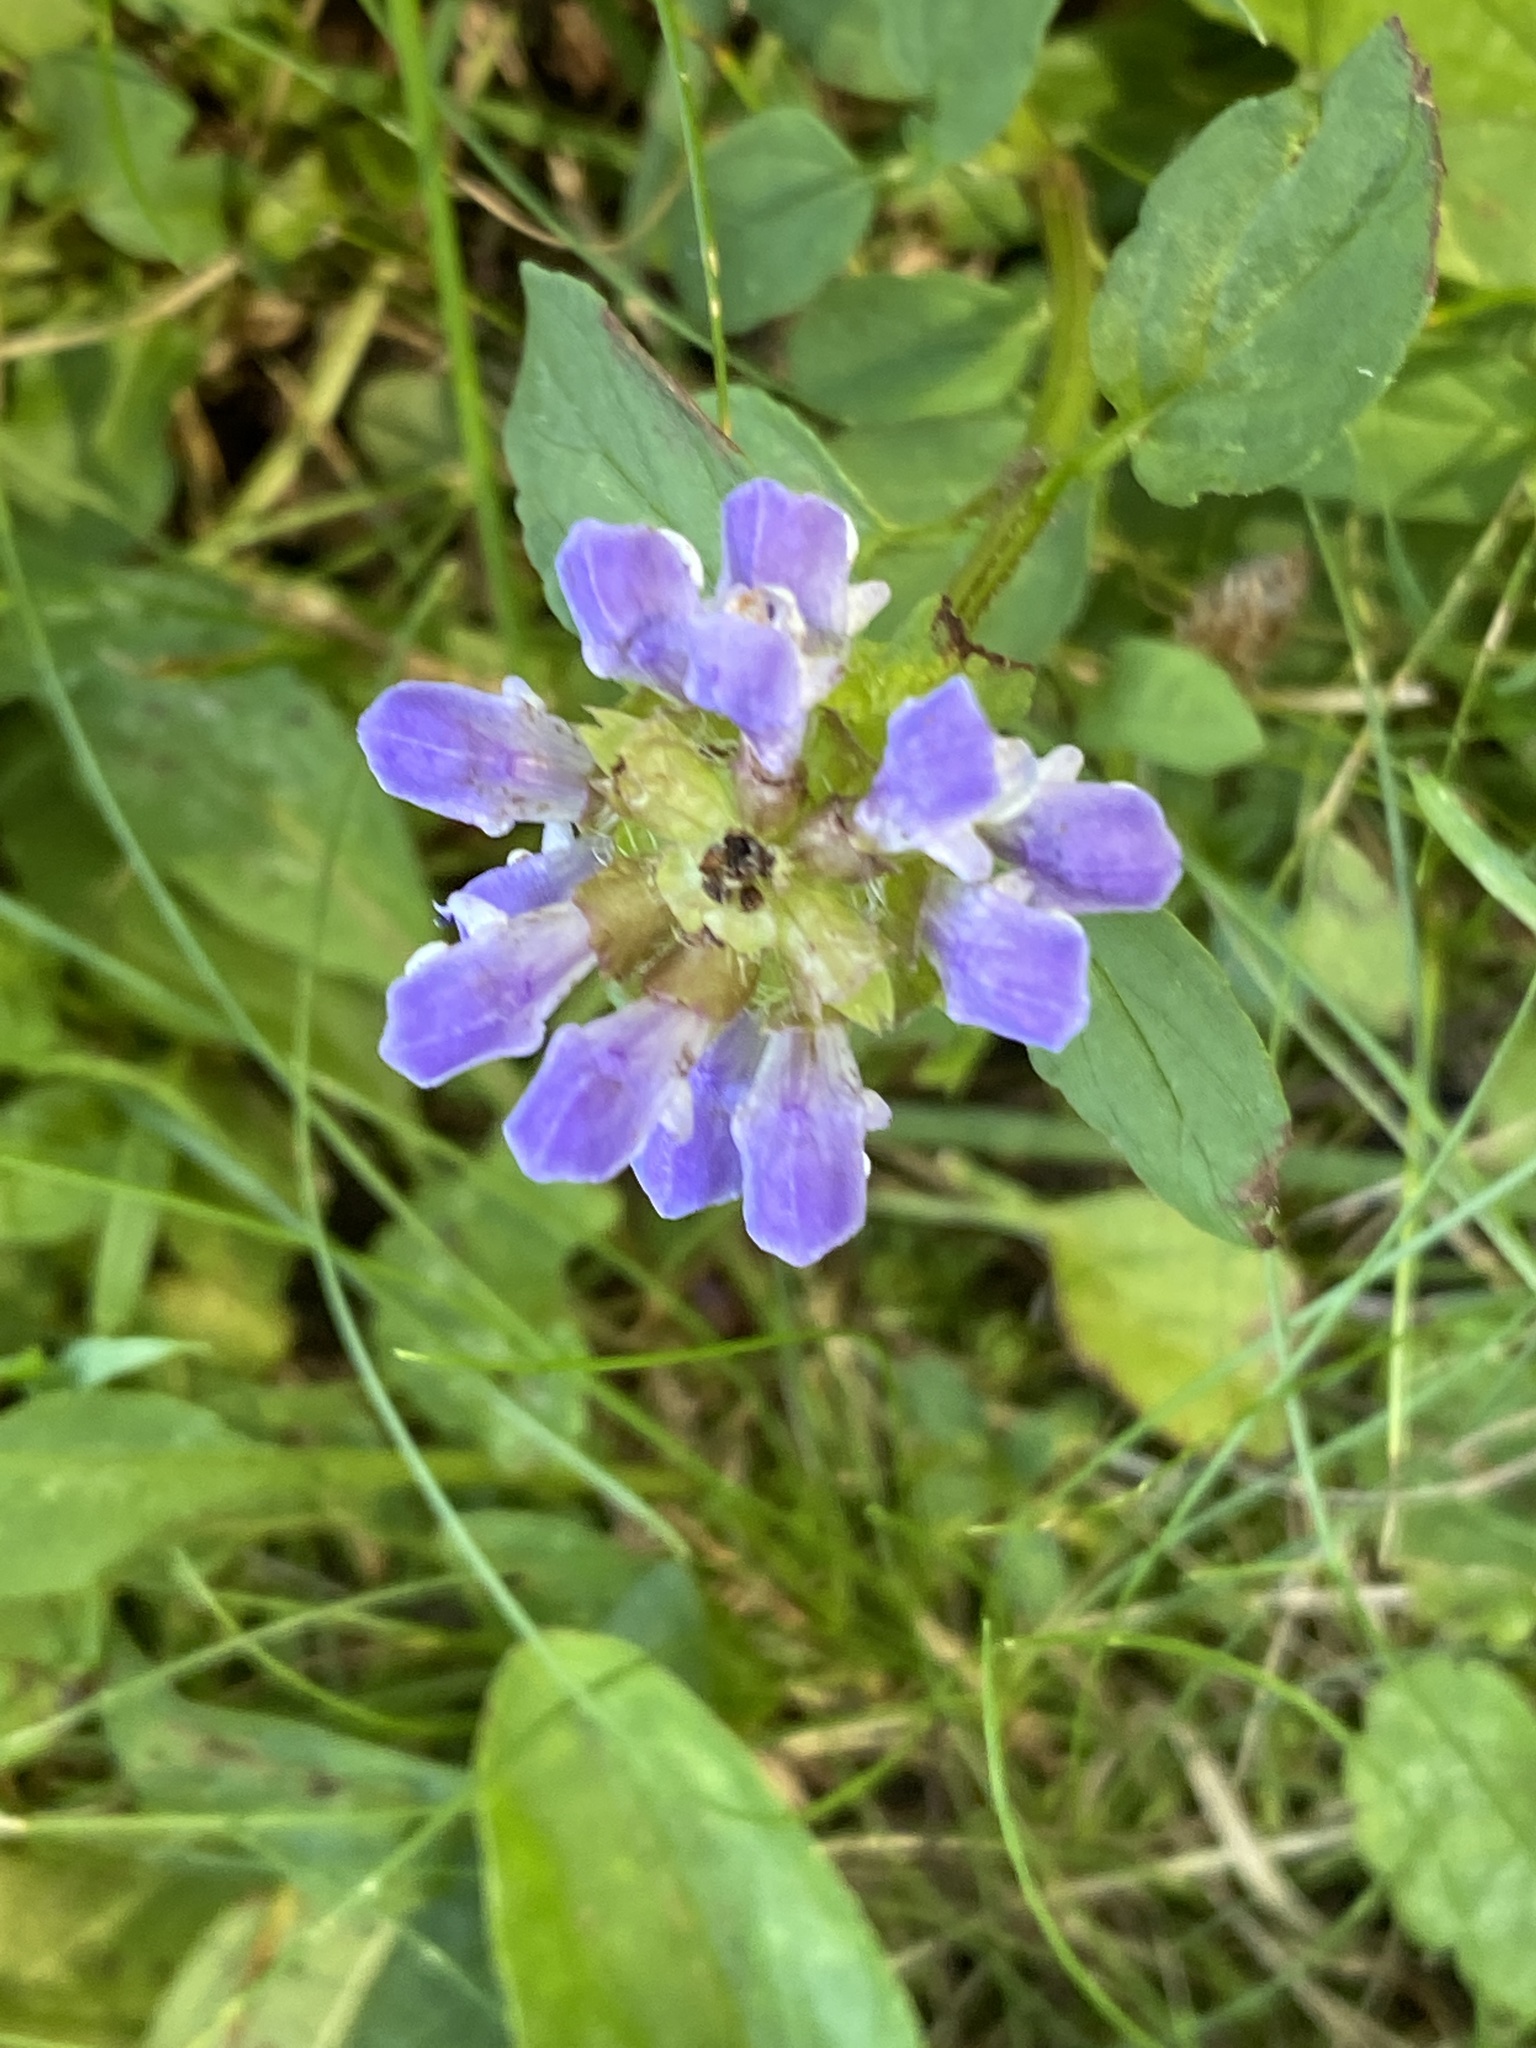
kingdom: Plantae
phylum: Tracheophyta
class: Magnoliopsida
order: Lamiales
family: Lamiaceae
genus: Prunella
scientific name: Prunella vulgaris
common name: Heal-all
